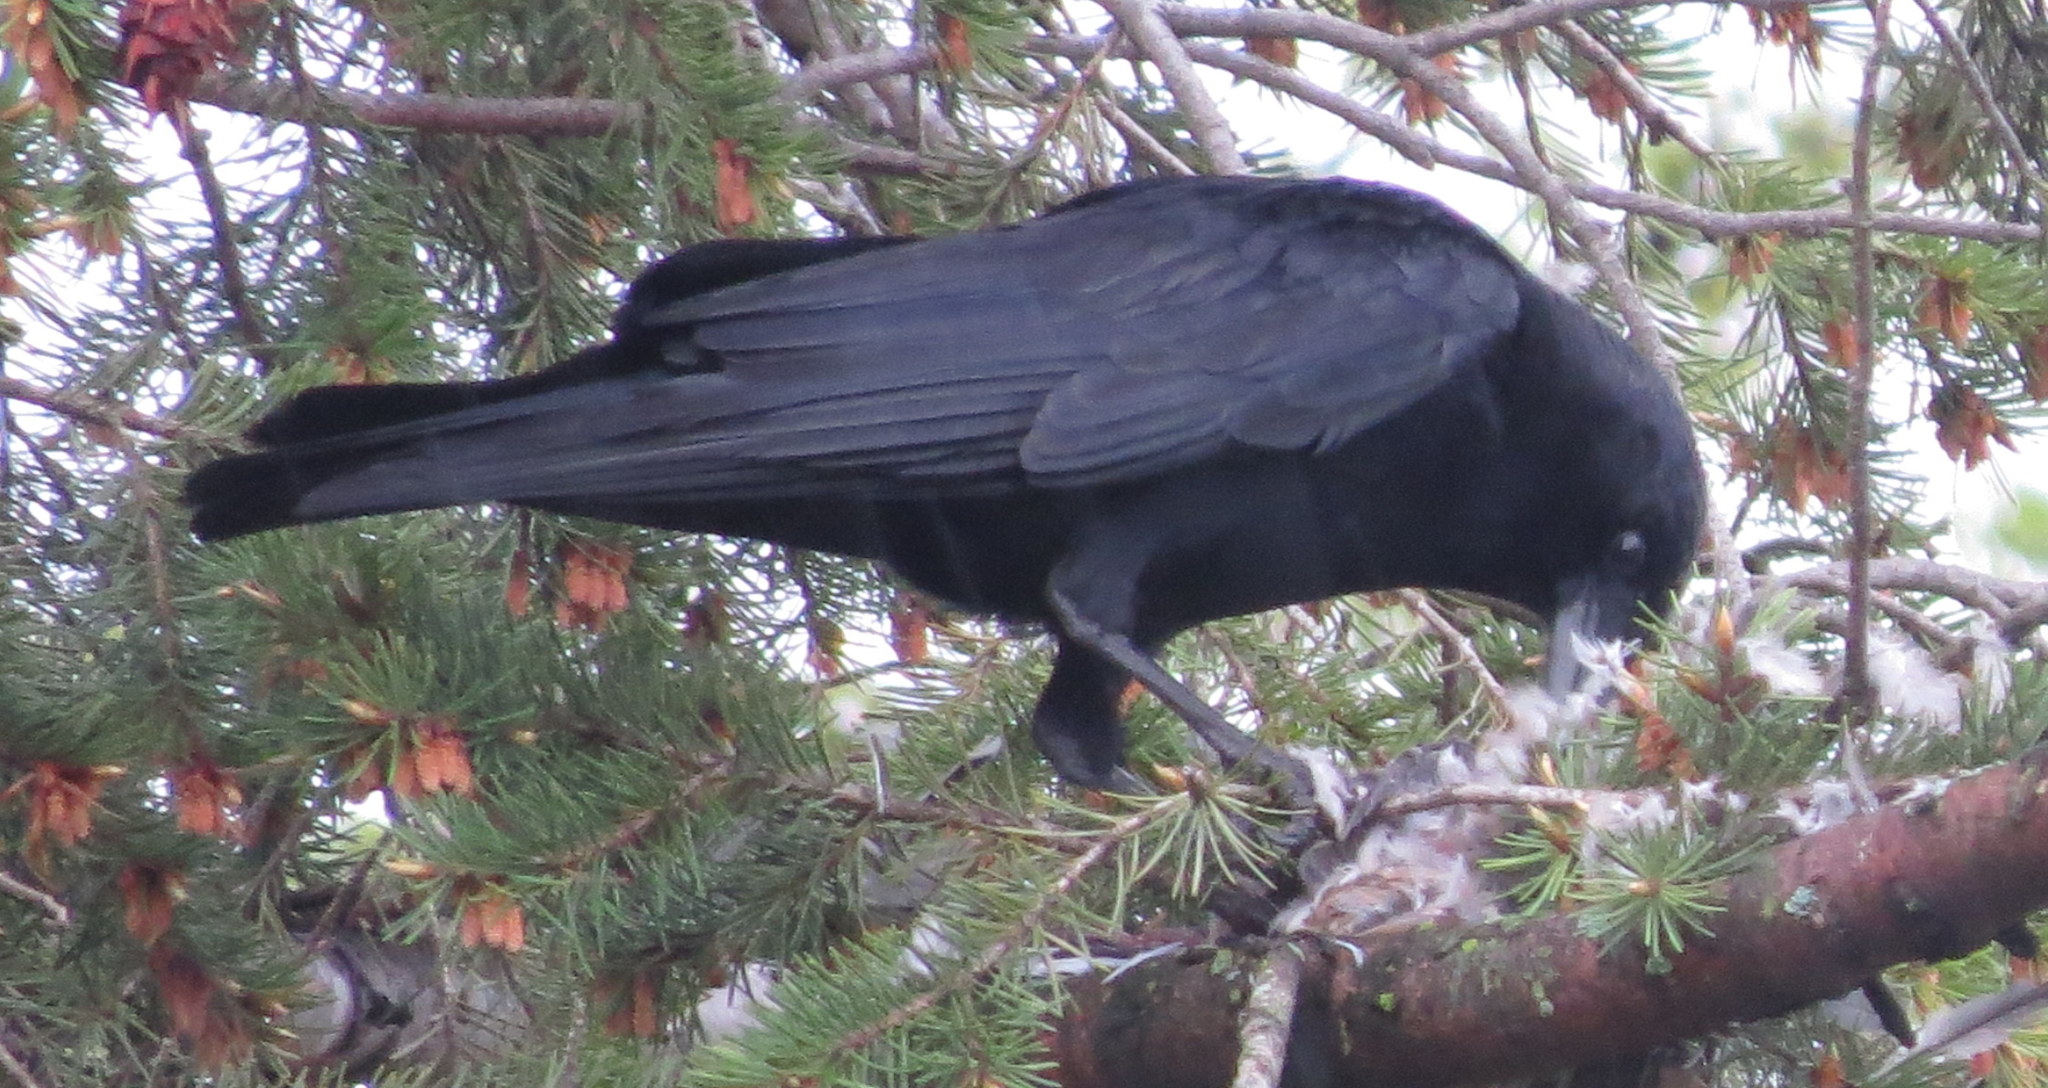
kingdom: Animalia
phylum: Chordata
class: Aves
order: Passeriformes
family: Corvidae
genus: Corvus
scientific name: Corvus brachyrhynchos
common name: American crow
